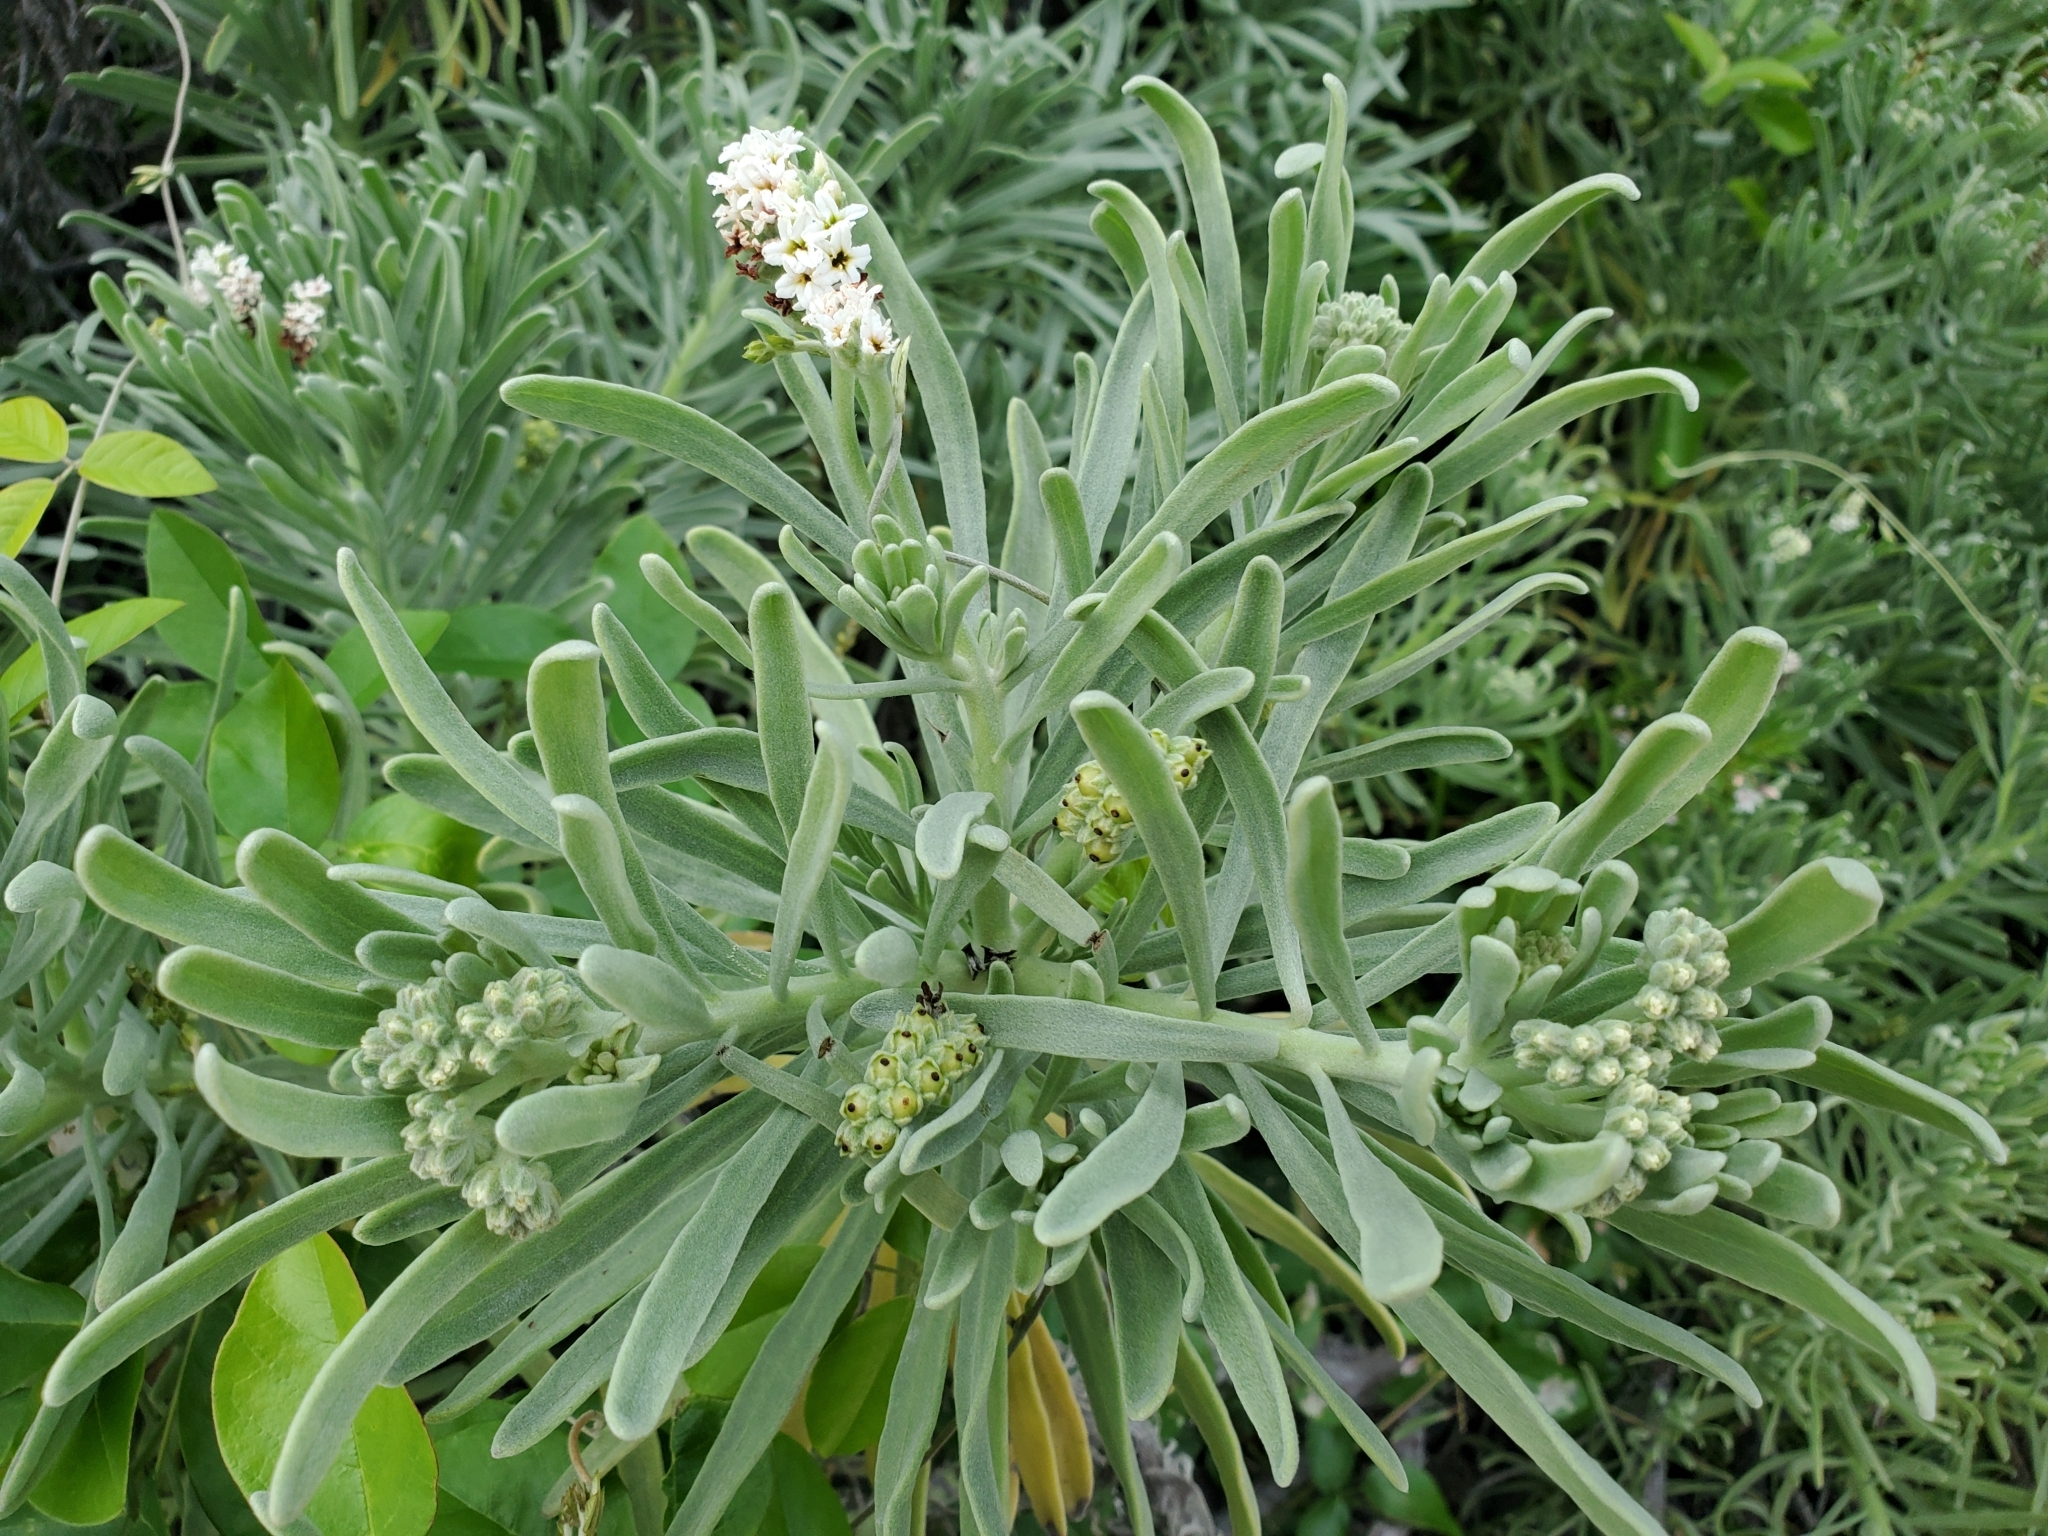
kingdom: Plantae
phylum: Tracheophyta
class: Magnoliopsida
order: Boraginales
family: Heliotropiaceae
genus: Tournefortia
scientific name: Tournefortia gnaphalodes
